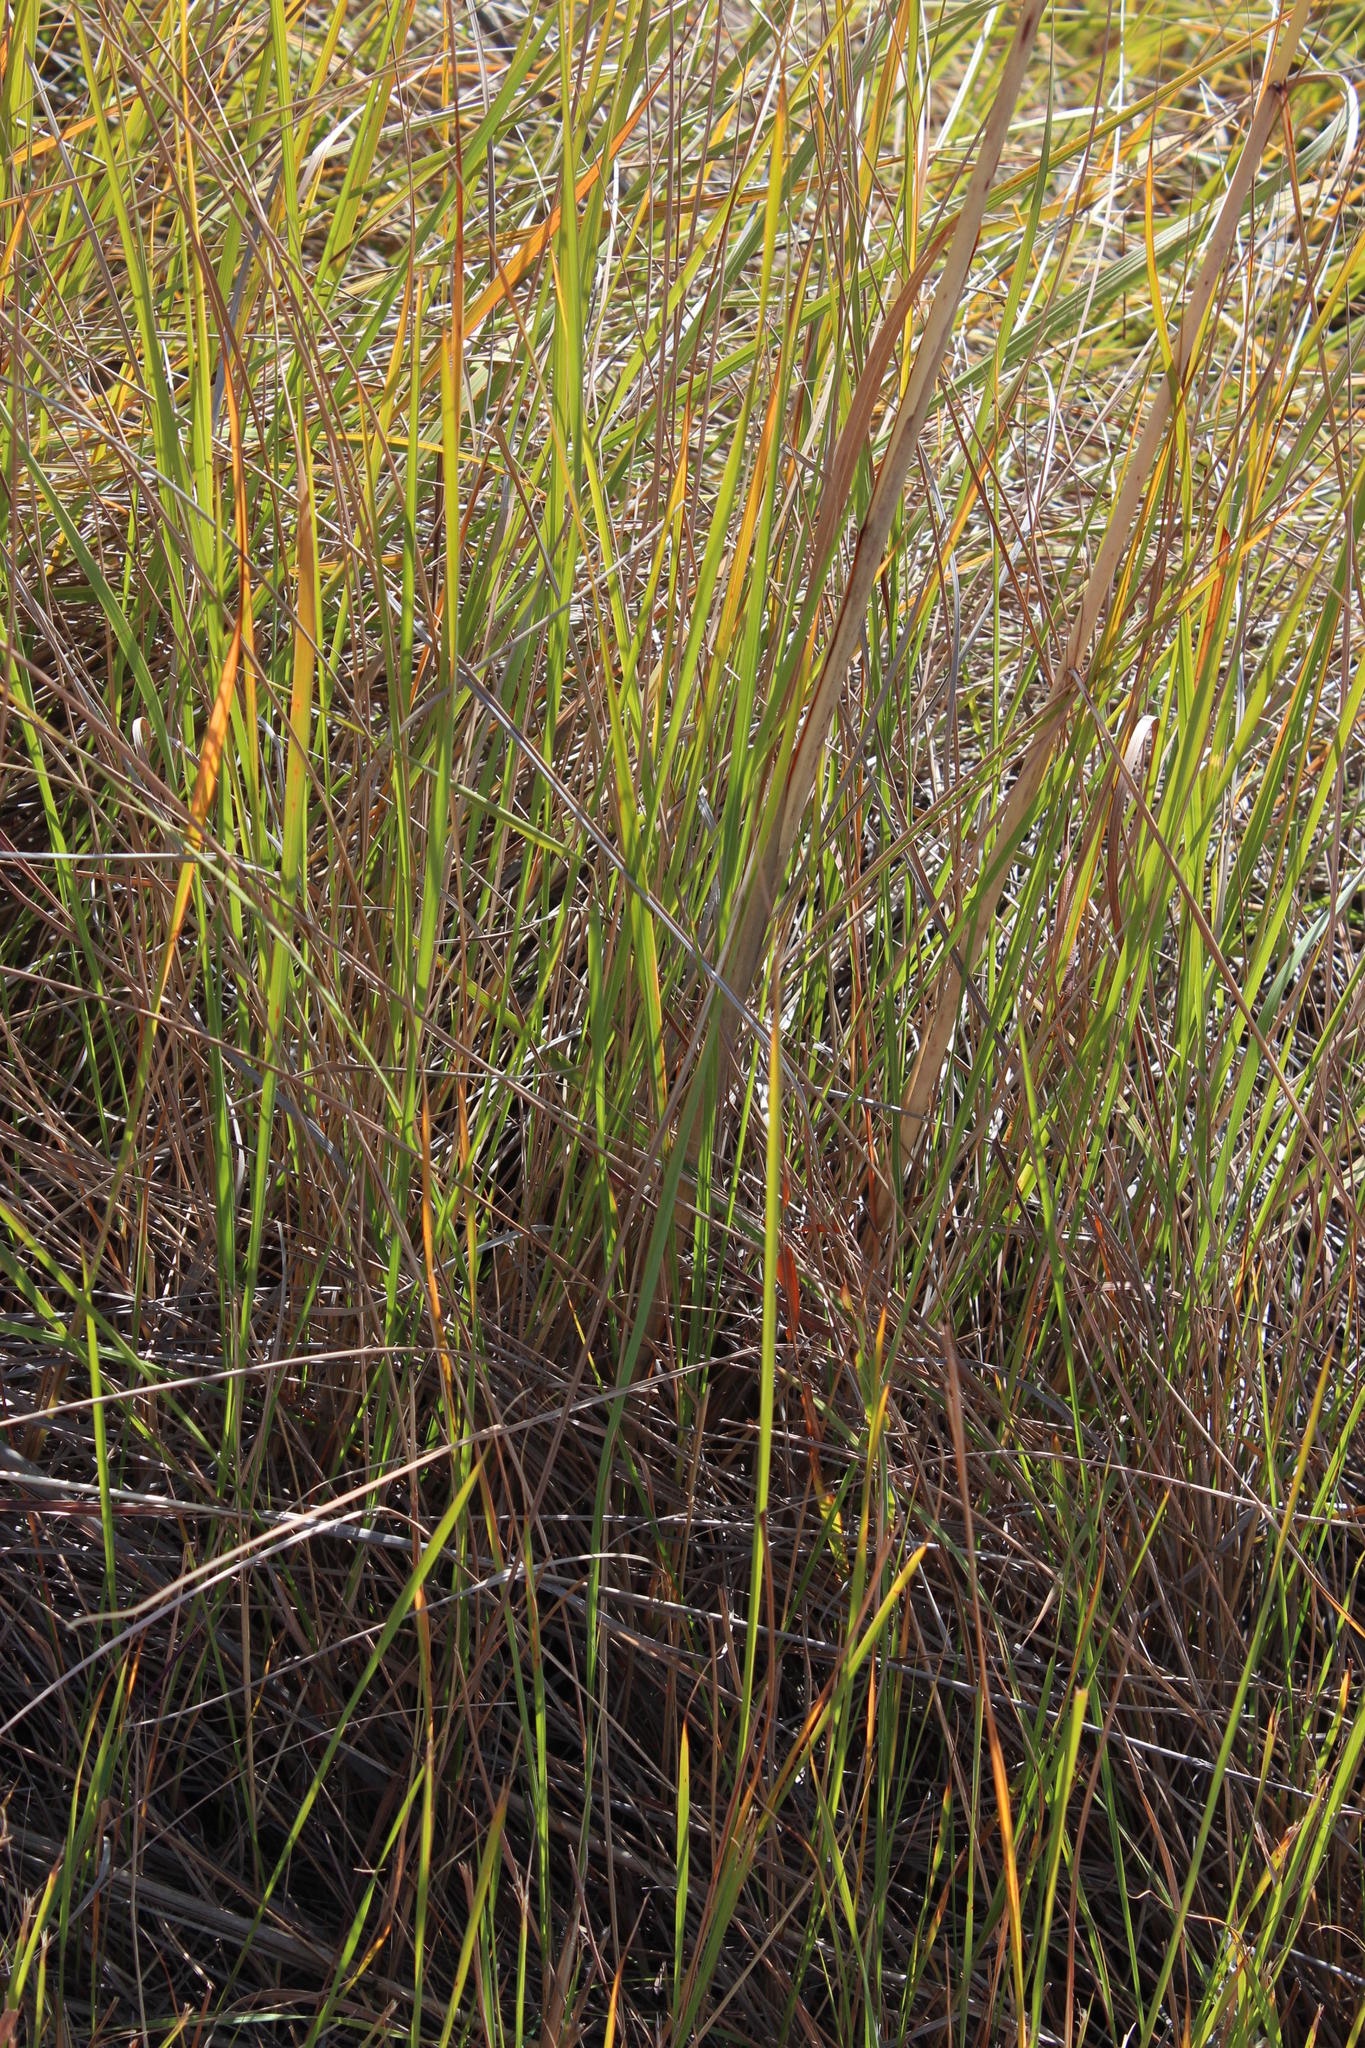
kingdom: Plantae
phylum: Tracheophyta
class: Liliopsida
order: Poales
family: Poaceae
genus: Miscanthus
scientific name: Miscanthus ecklonii
